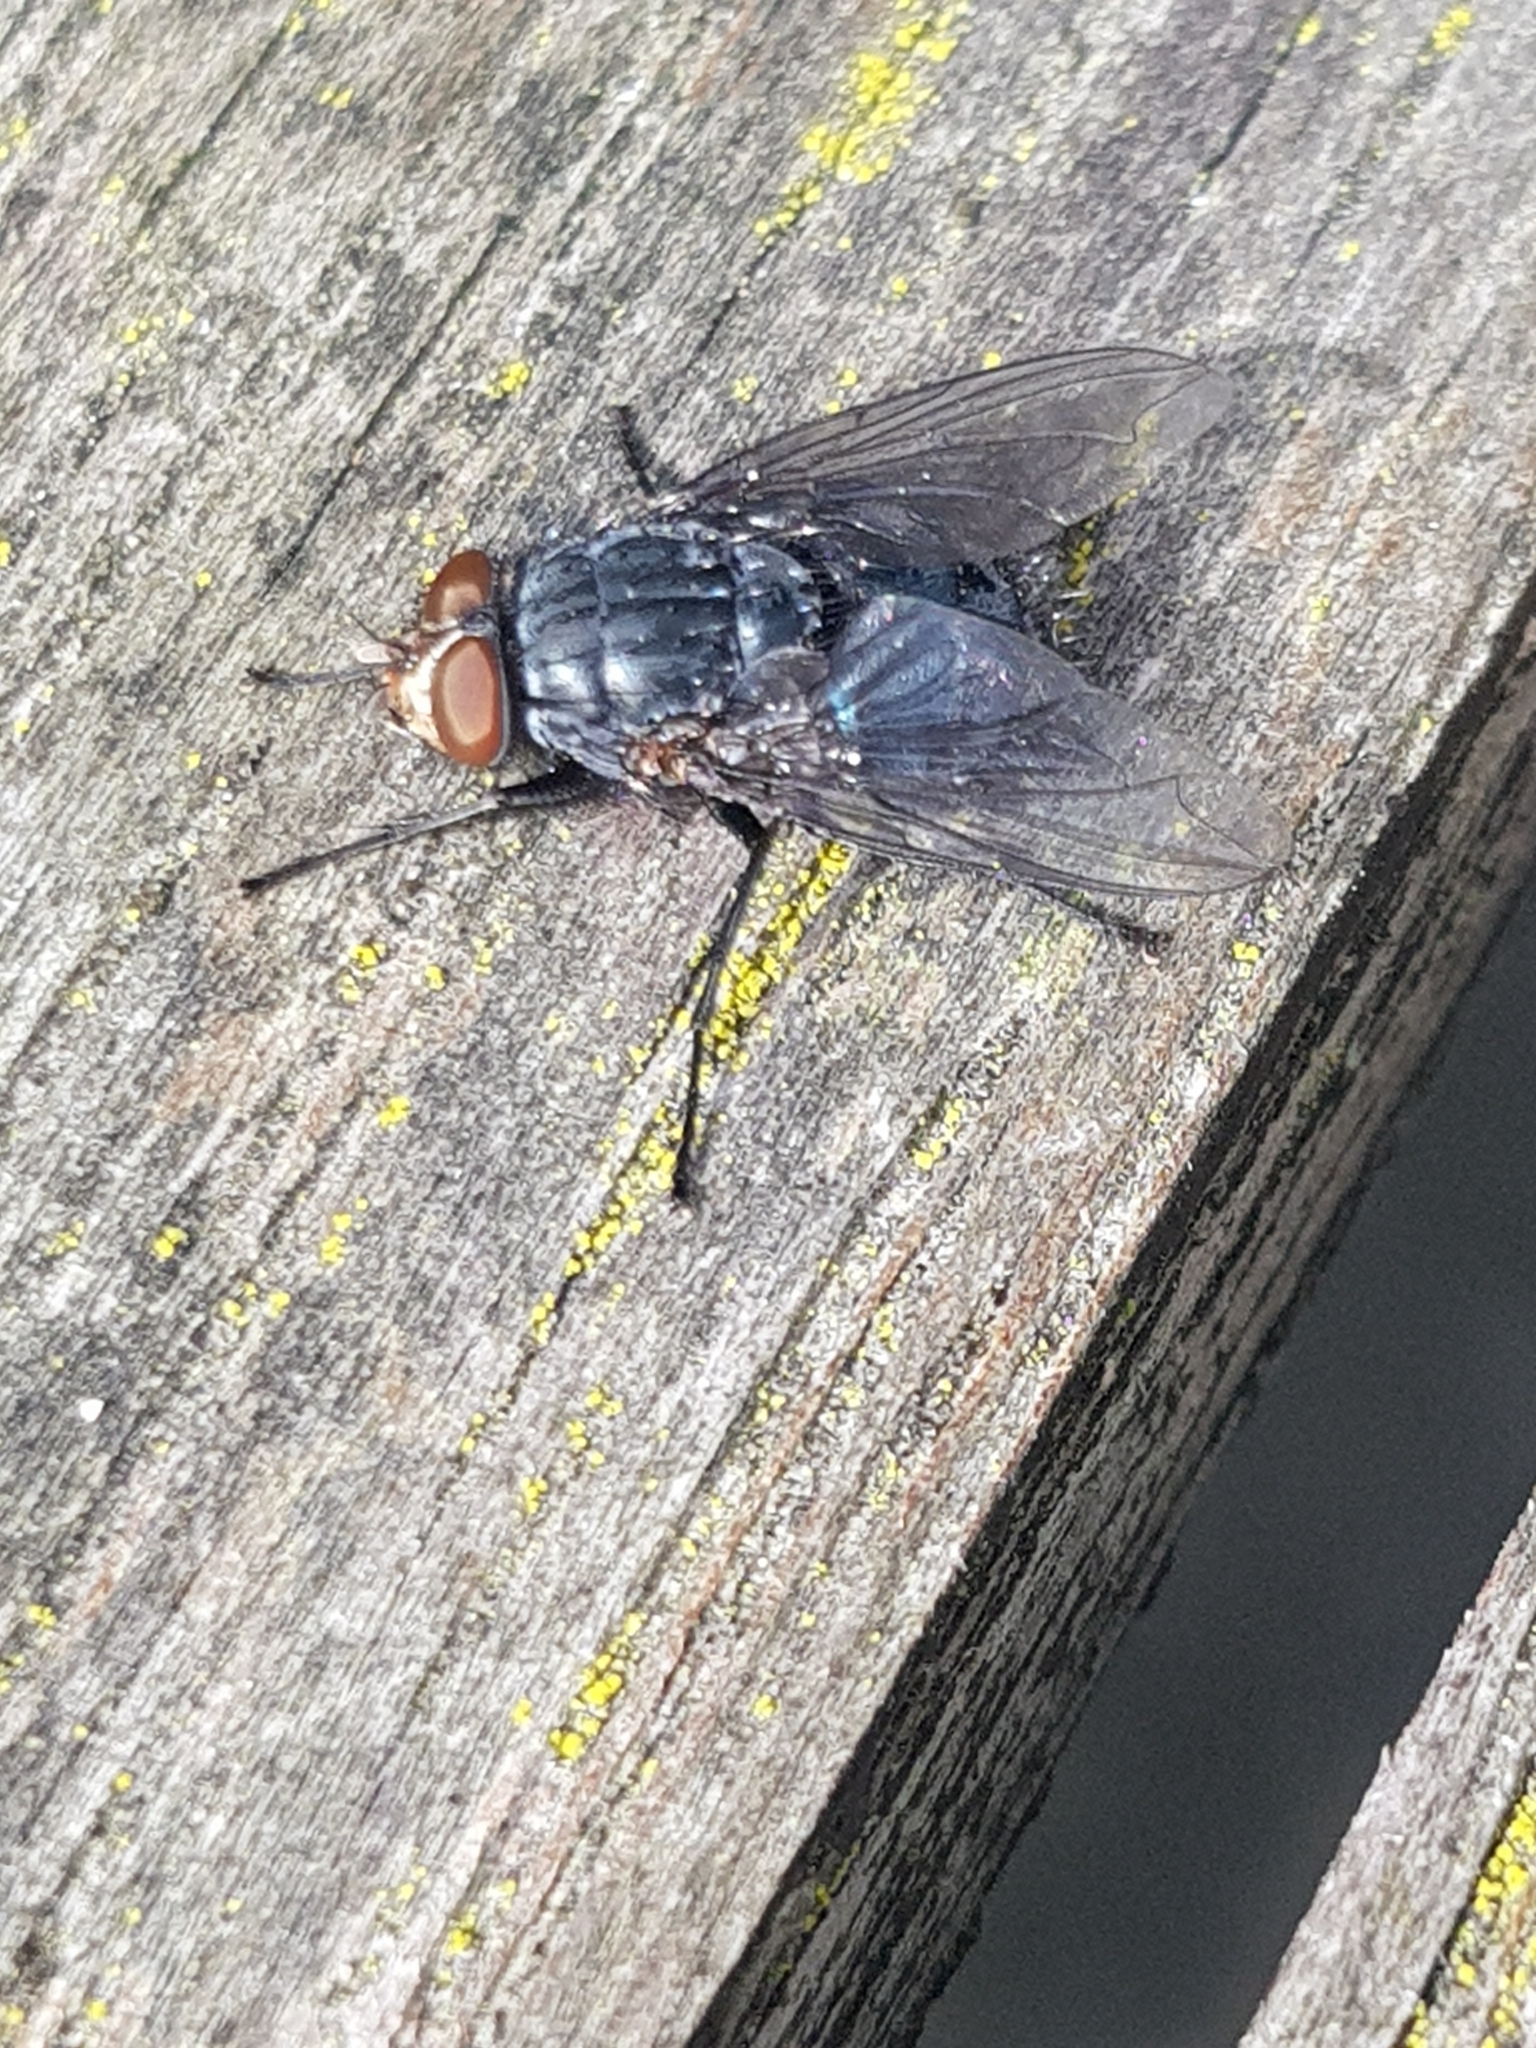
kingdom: Animalia
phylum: Arthropoda
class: Insecta
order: Diptera
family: Calliphoridae
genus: Calliphora
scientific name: Calliphora vicina
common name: Common blow flie
